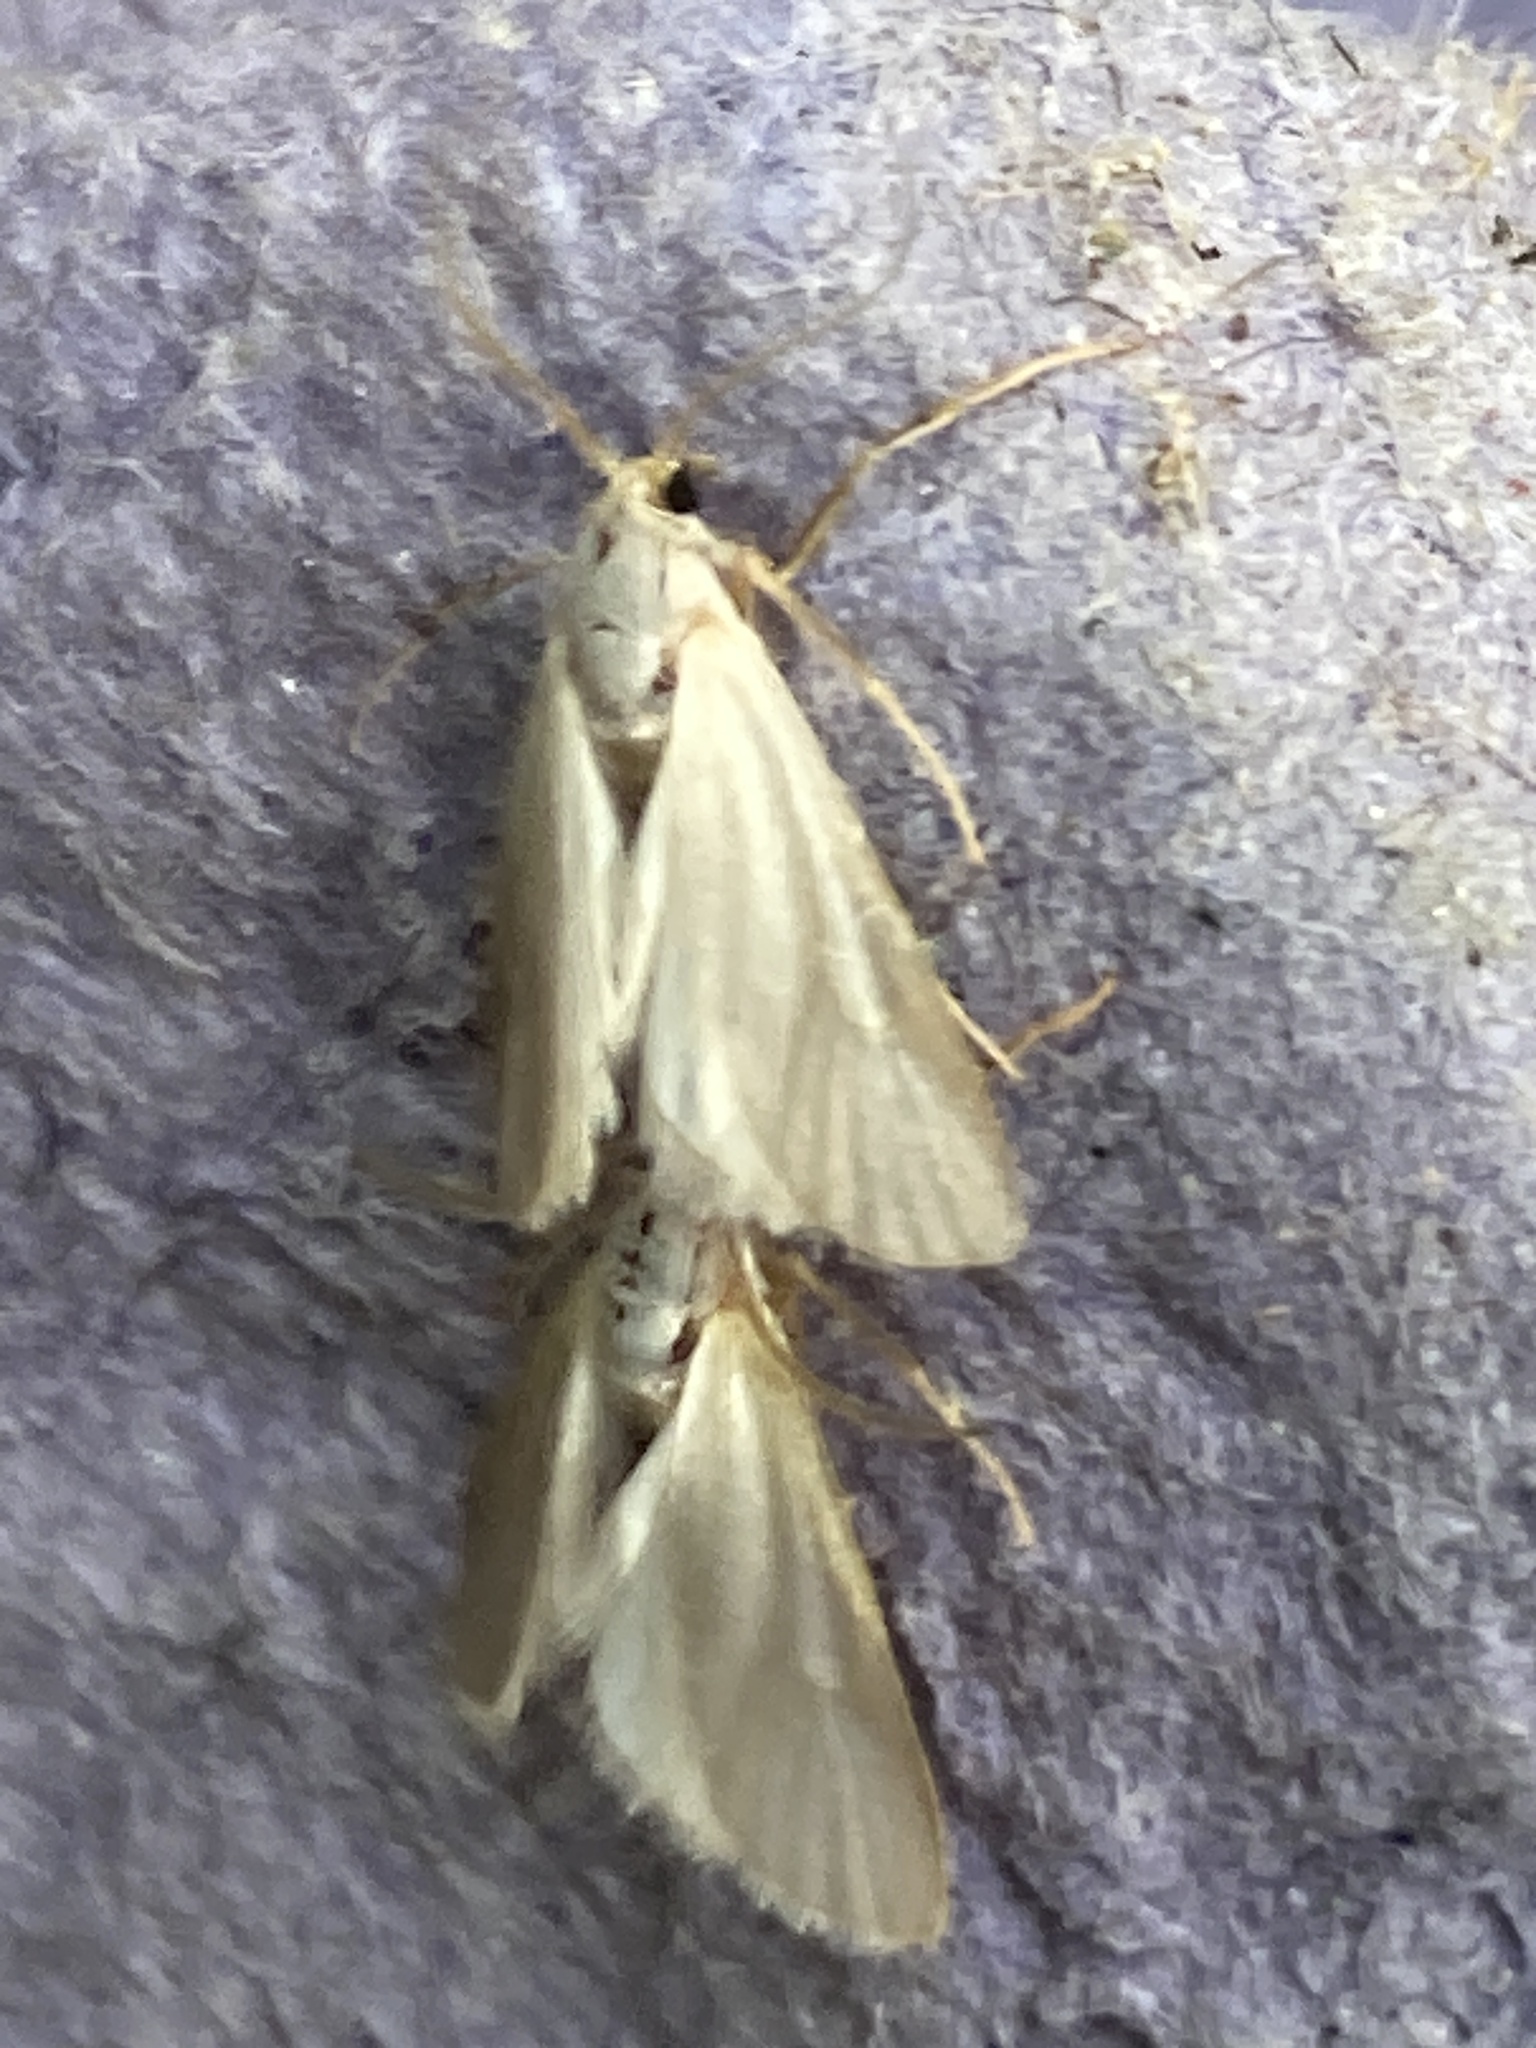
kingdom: Animalia
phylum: Arthropoda
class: Insecta
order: Lepidoptera
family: Crambidae
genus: Acentria
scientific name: Acentria ephemerella
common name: European water moth
